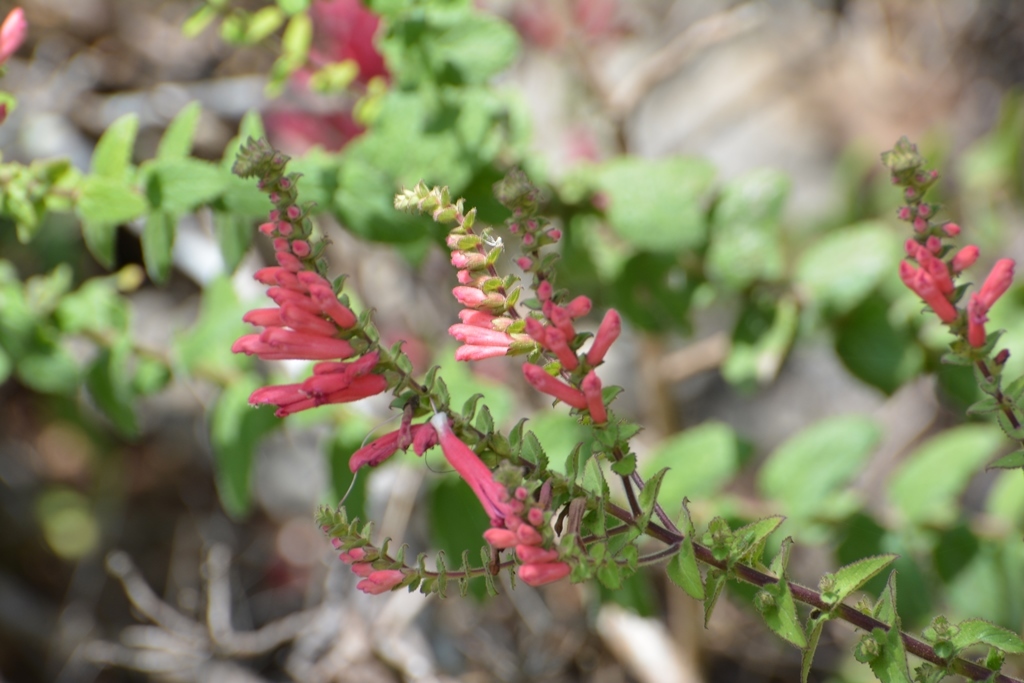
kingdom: Plantae
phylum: Tracheophyta
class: Magnoliopsida
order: Lamiales
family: Orobanchaceae
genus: Lamourouxia
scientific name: Lamourouxia viscosa
